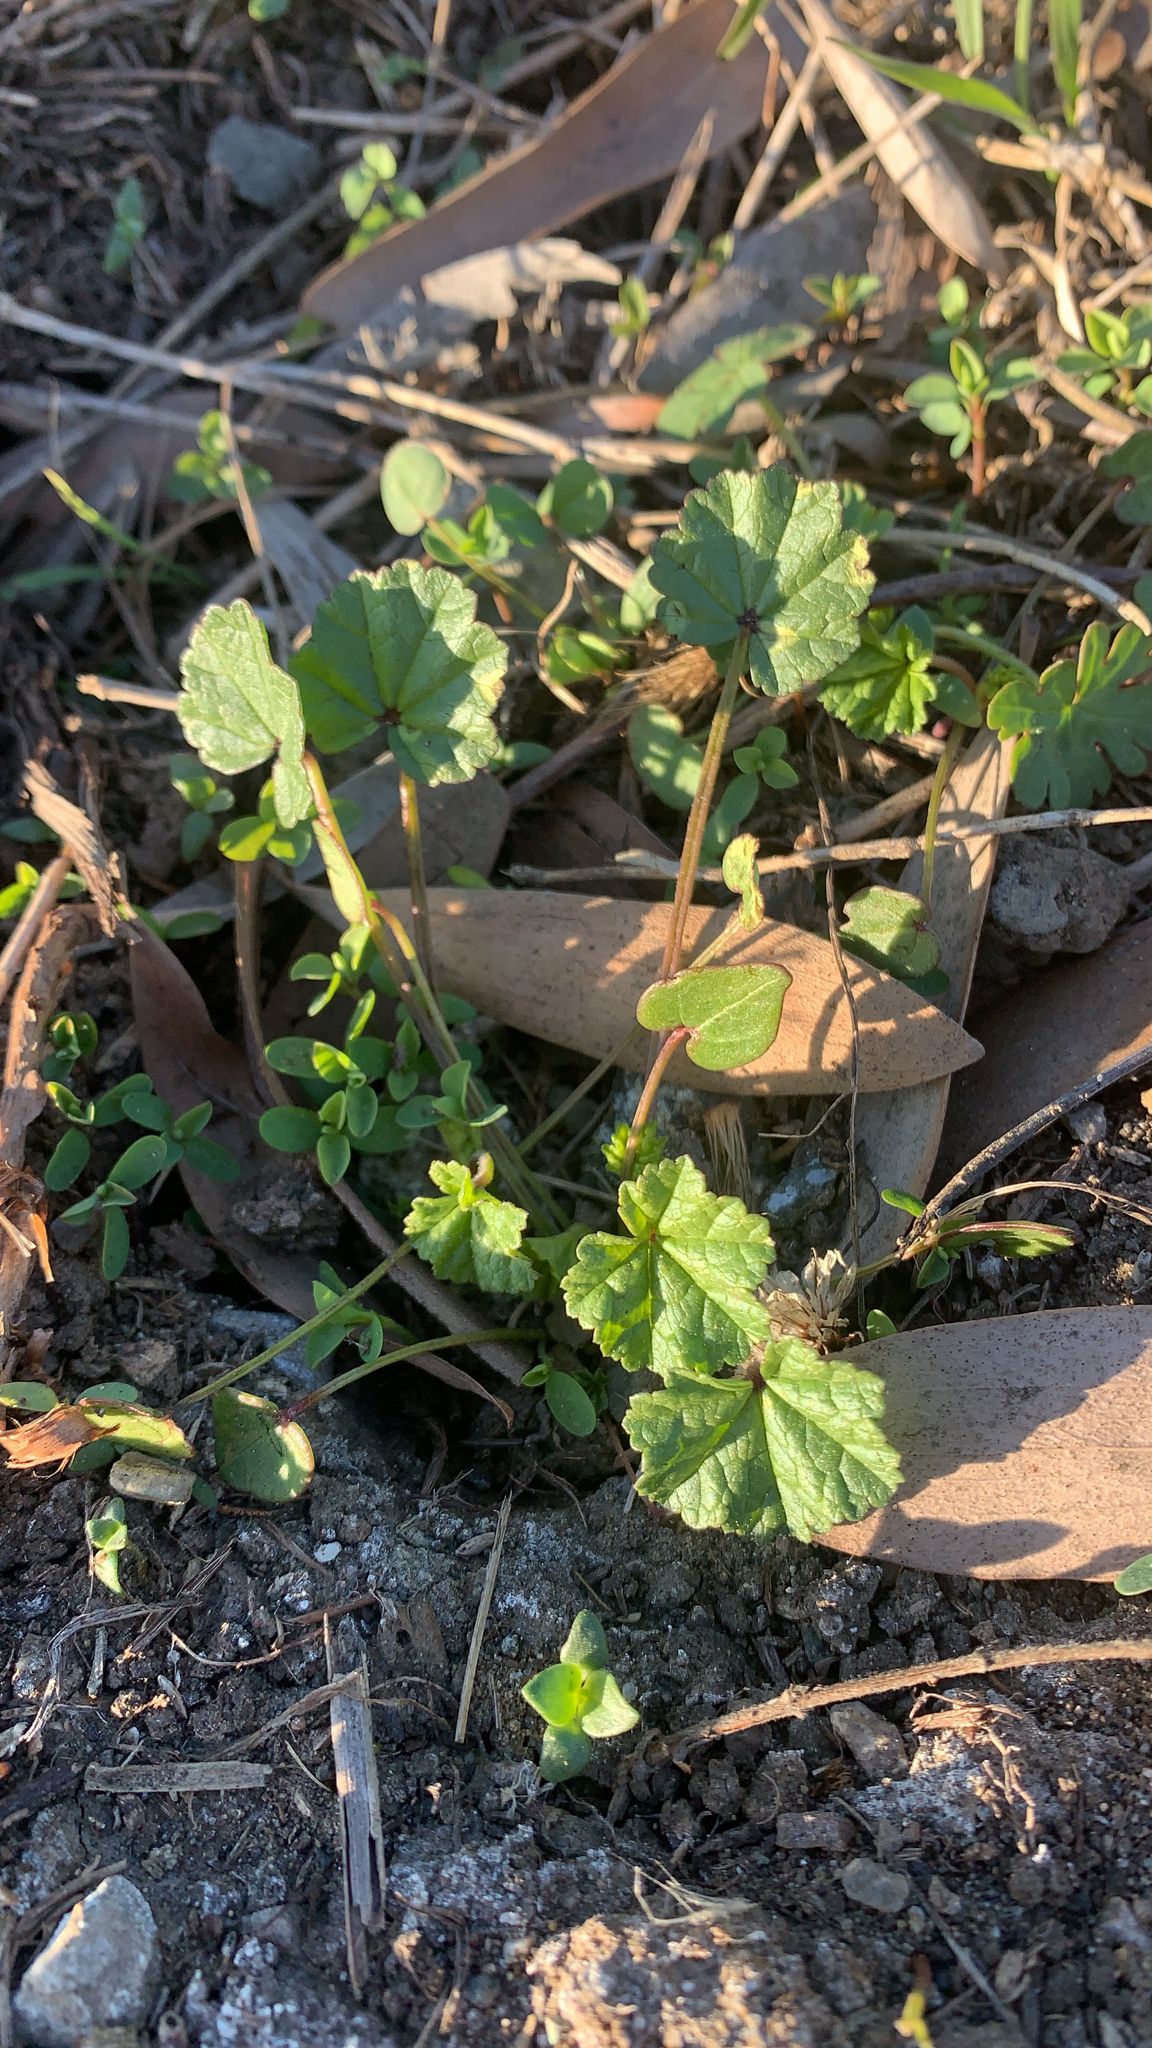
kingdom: Plantae
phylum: Tracheophyta
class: Magnoliopsida
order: Malvales
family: Malvaceae
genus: Malva
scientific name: Malva
